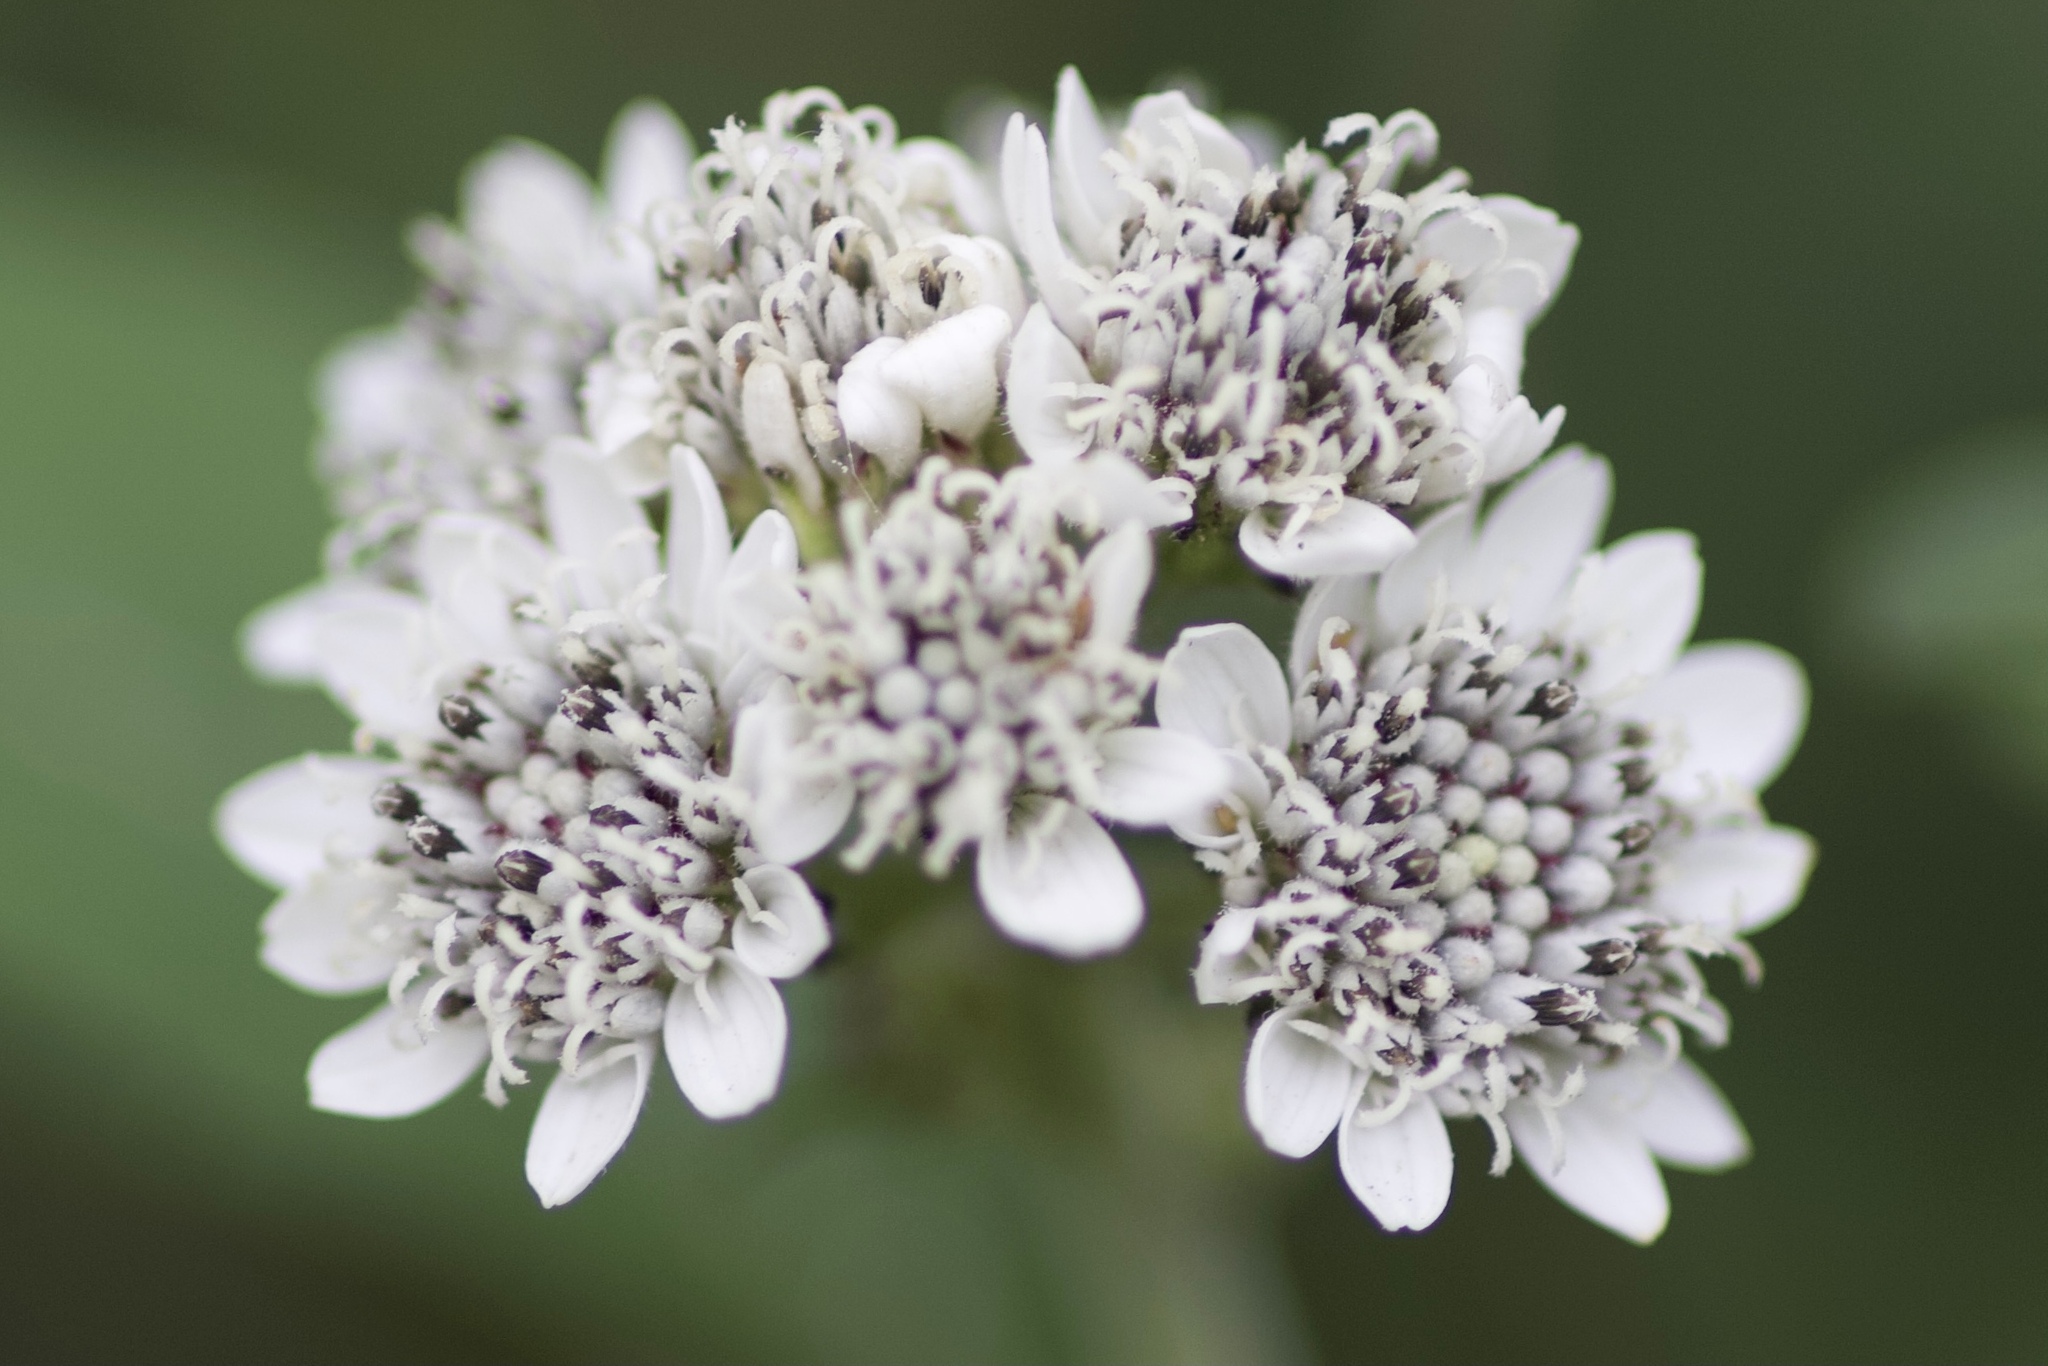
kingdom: Plantae
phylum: Tracheophyta
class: Magnoliopsida
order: Asterales
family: Asteraceae
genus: Verbesina
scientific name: Verbesina microptera
